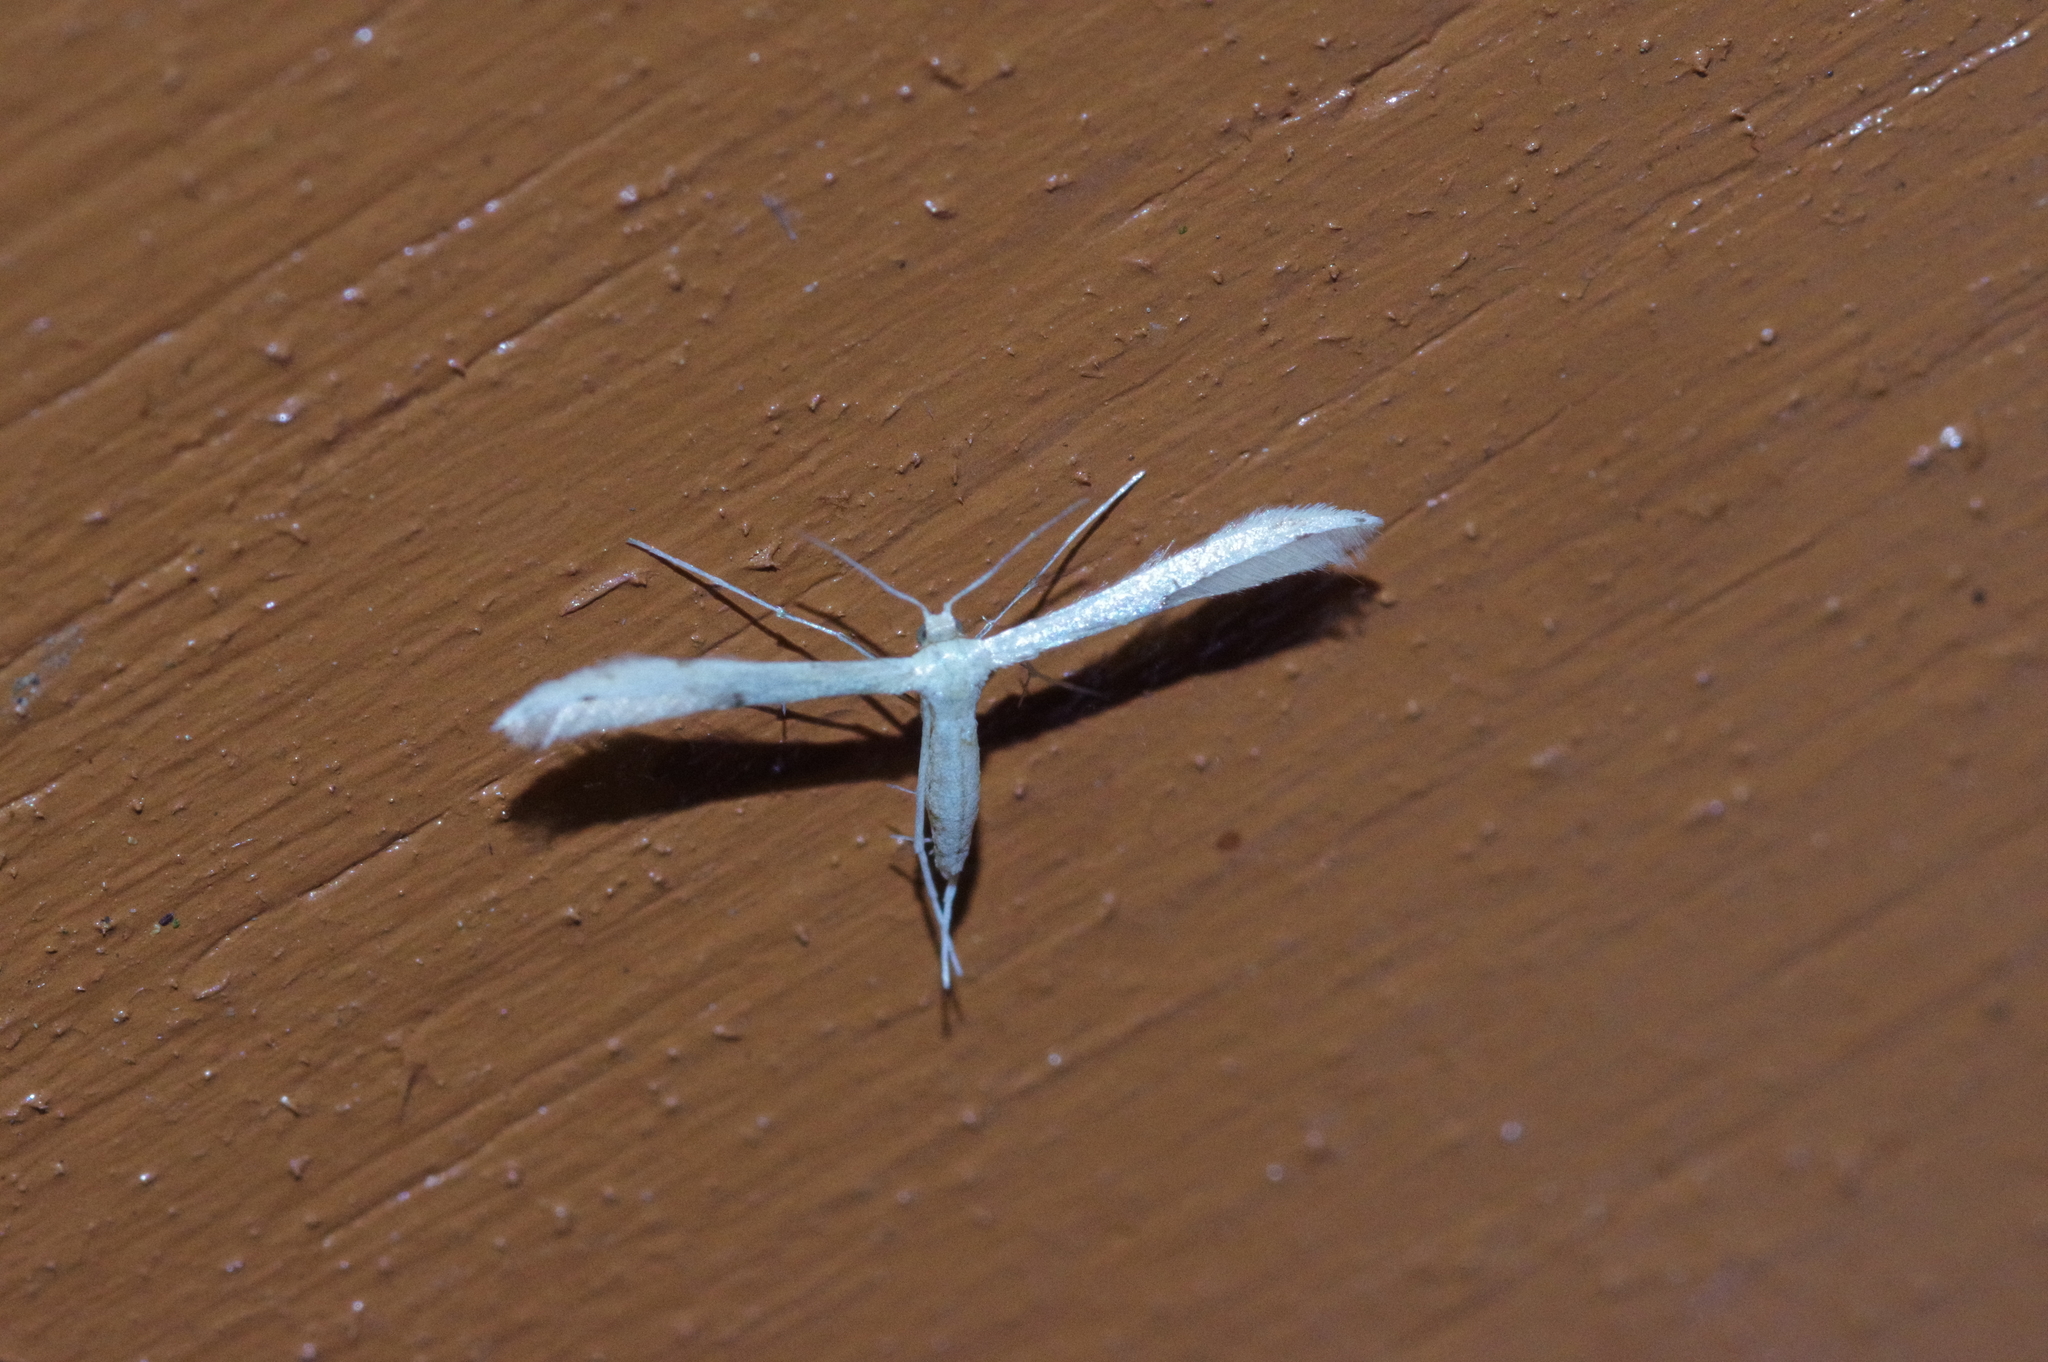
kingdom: Animalia
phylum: Arthropoda
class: Insecta
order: Lepidoptera
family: Pterophoridae
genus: Adaina
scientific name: Adaina microdactyla
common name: Hemp-agrimony plume
